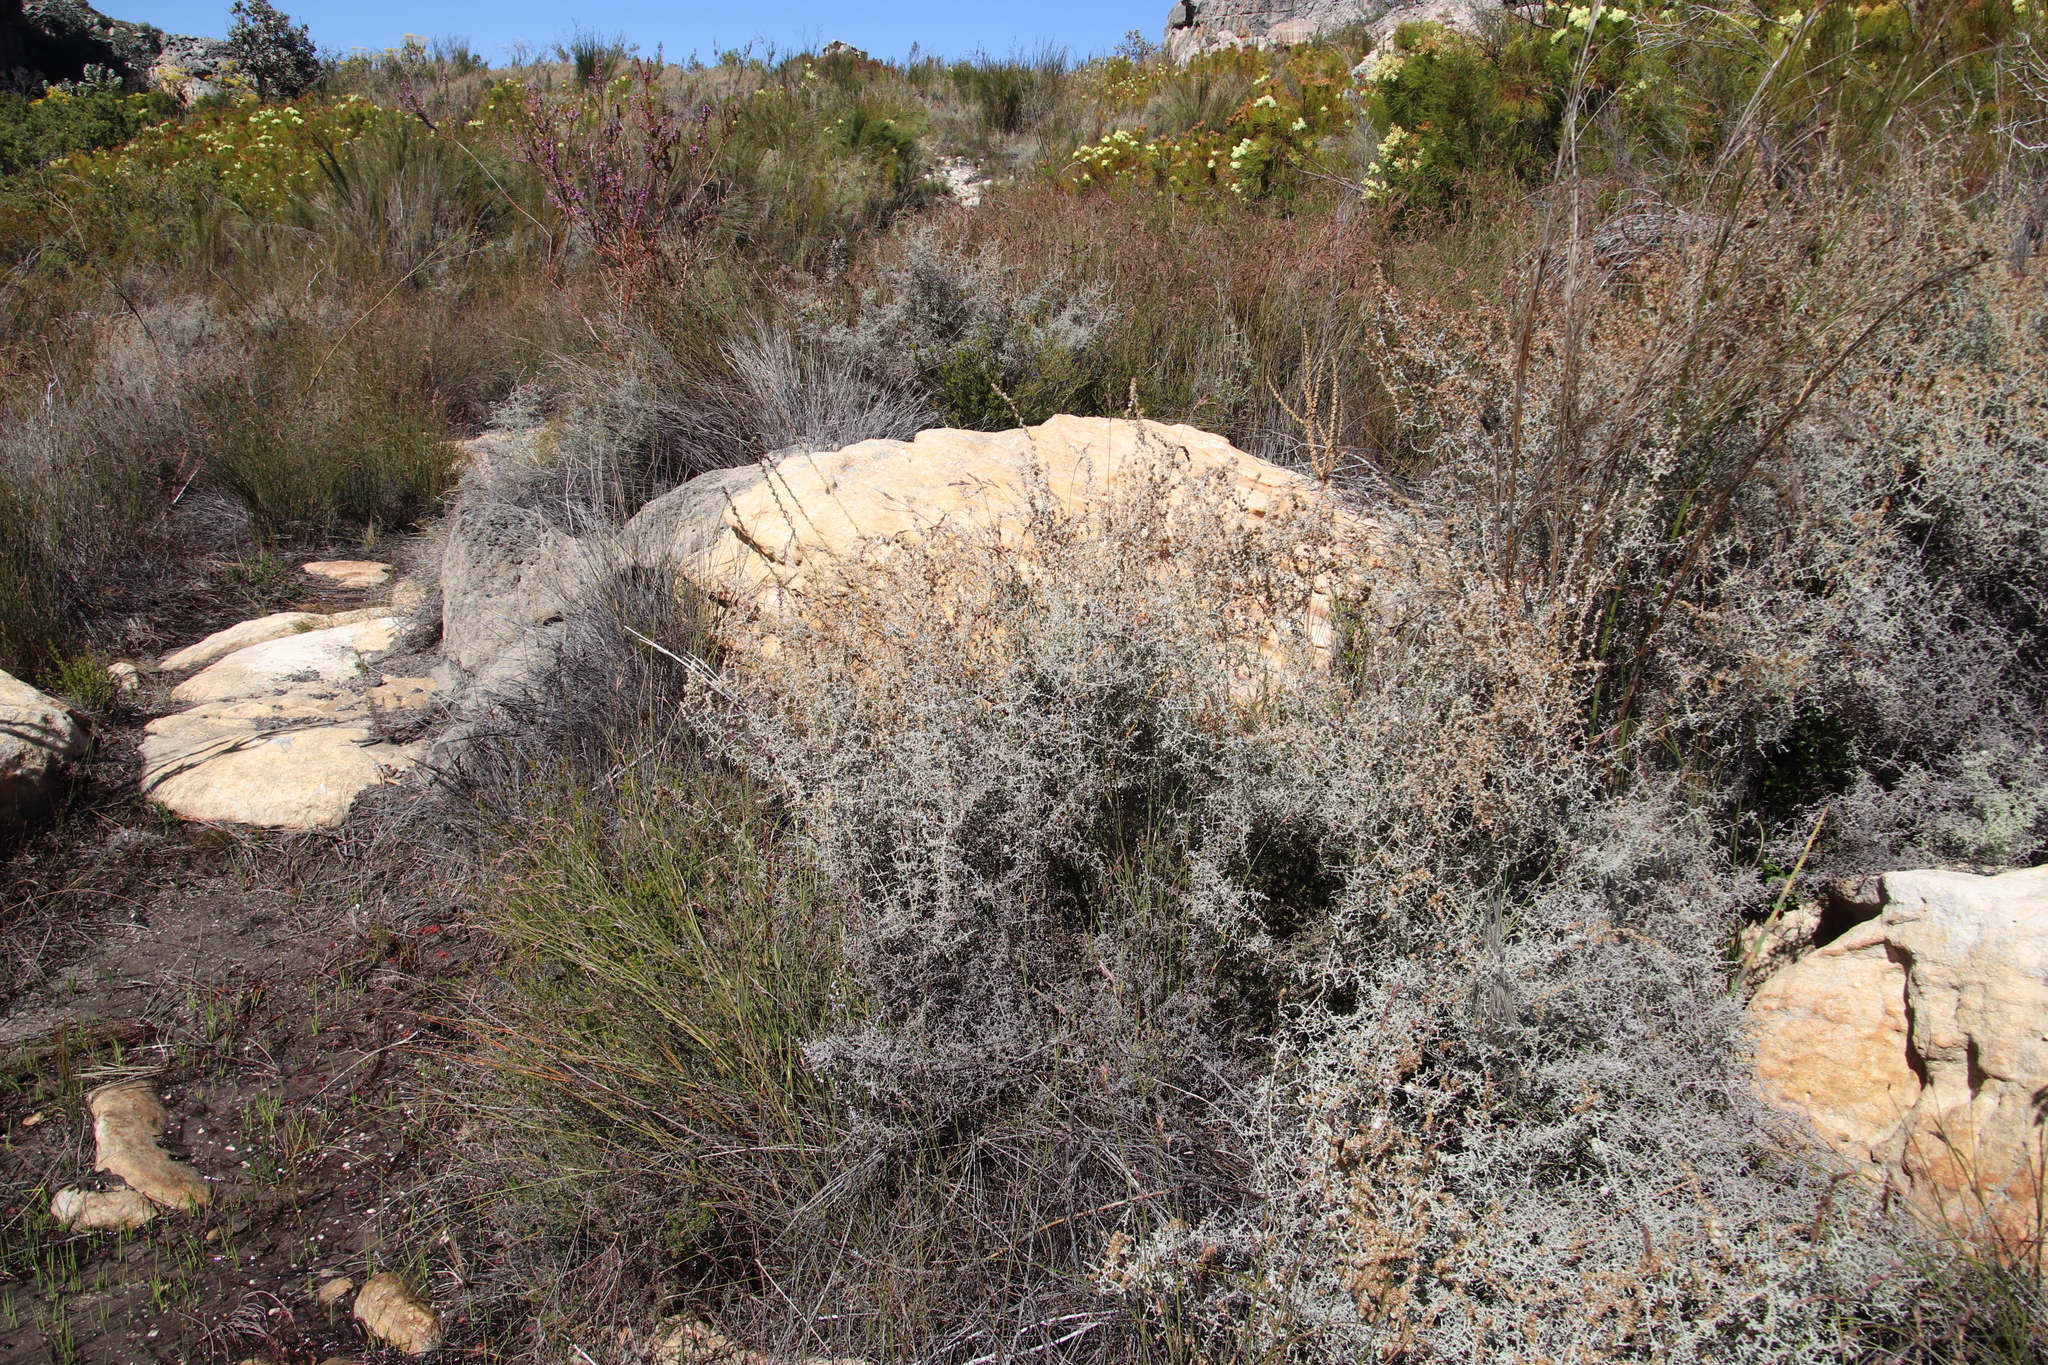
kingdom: Plantae
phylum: Tracheophyta
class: Magnoliopsida
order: Asterales
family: Asteraceae
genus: Seriphium
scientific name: Seriphium plumosum
